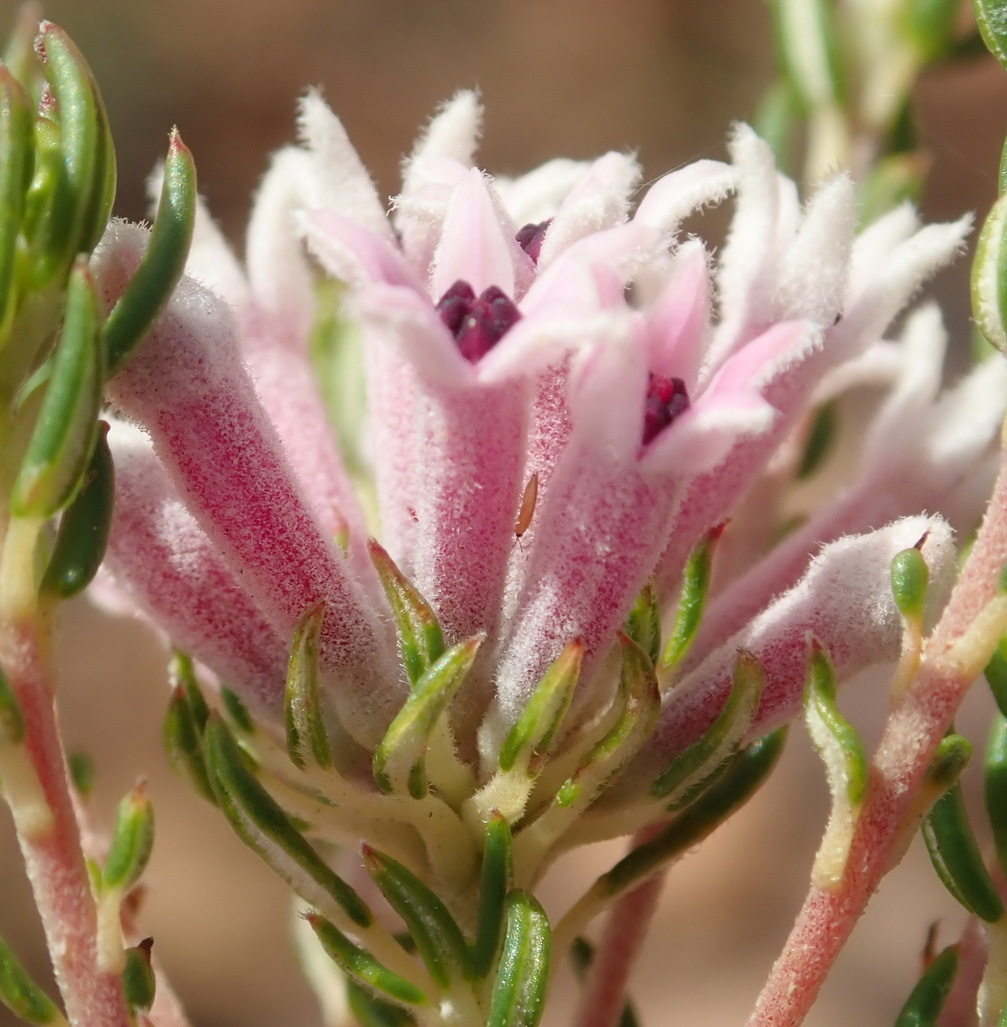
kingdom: Plantae
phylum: Tracheophyta
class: Magnoliopsida
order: Rosales
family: Rhamnaceae
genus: Phylica
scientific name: Phylica lachneaeoides
